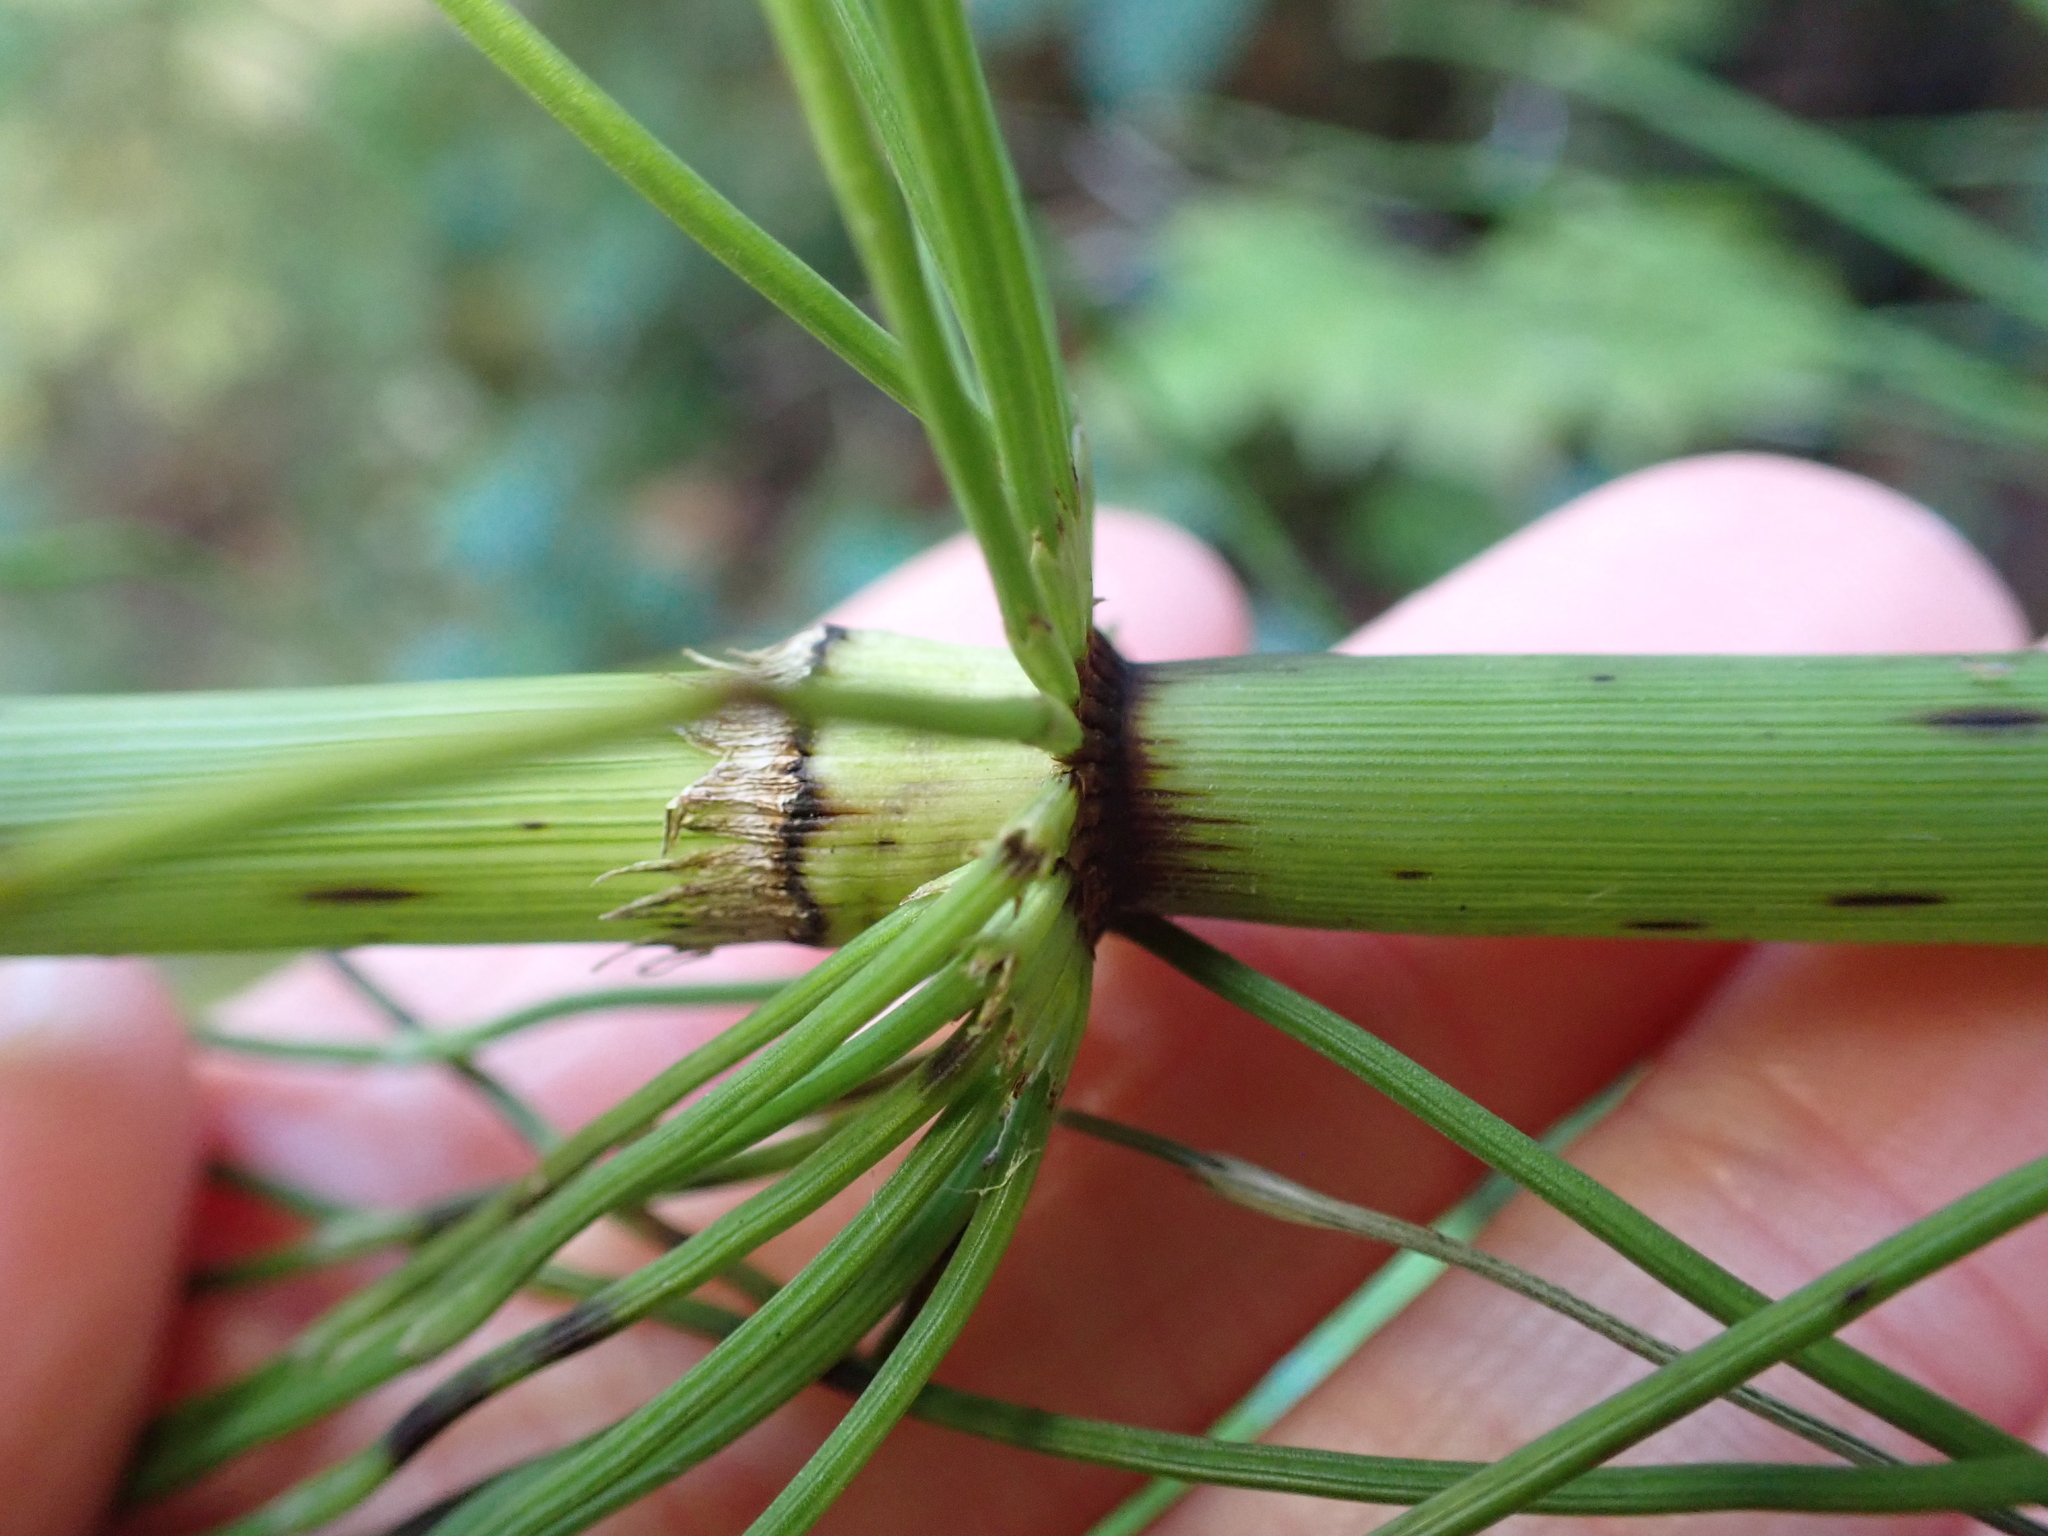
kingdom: Plantae
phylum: Tracheophyta
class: Polypodiopsida
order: Equisetales
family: Equisetaceae
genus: Equisetum
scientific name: Equisetum braunii
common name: Braun's horsetail
